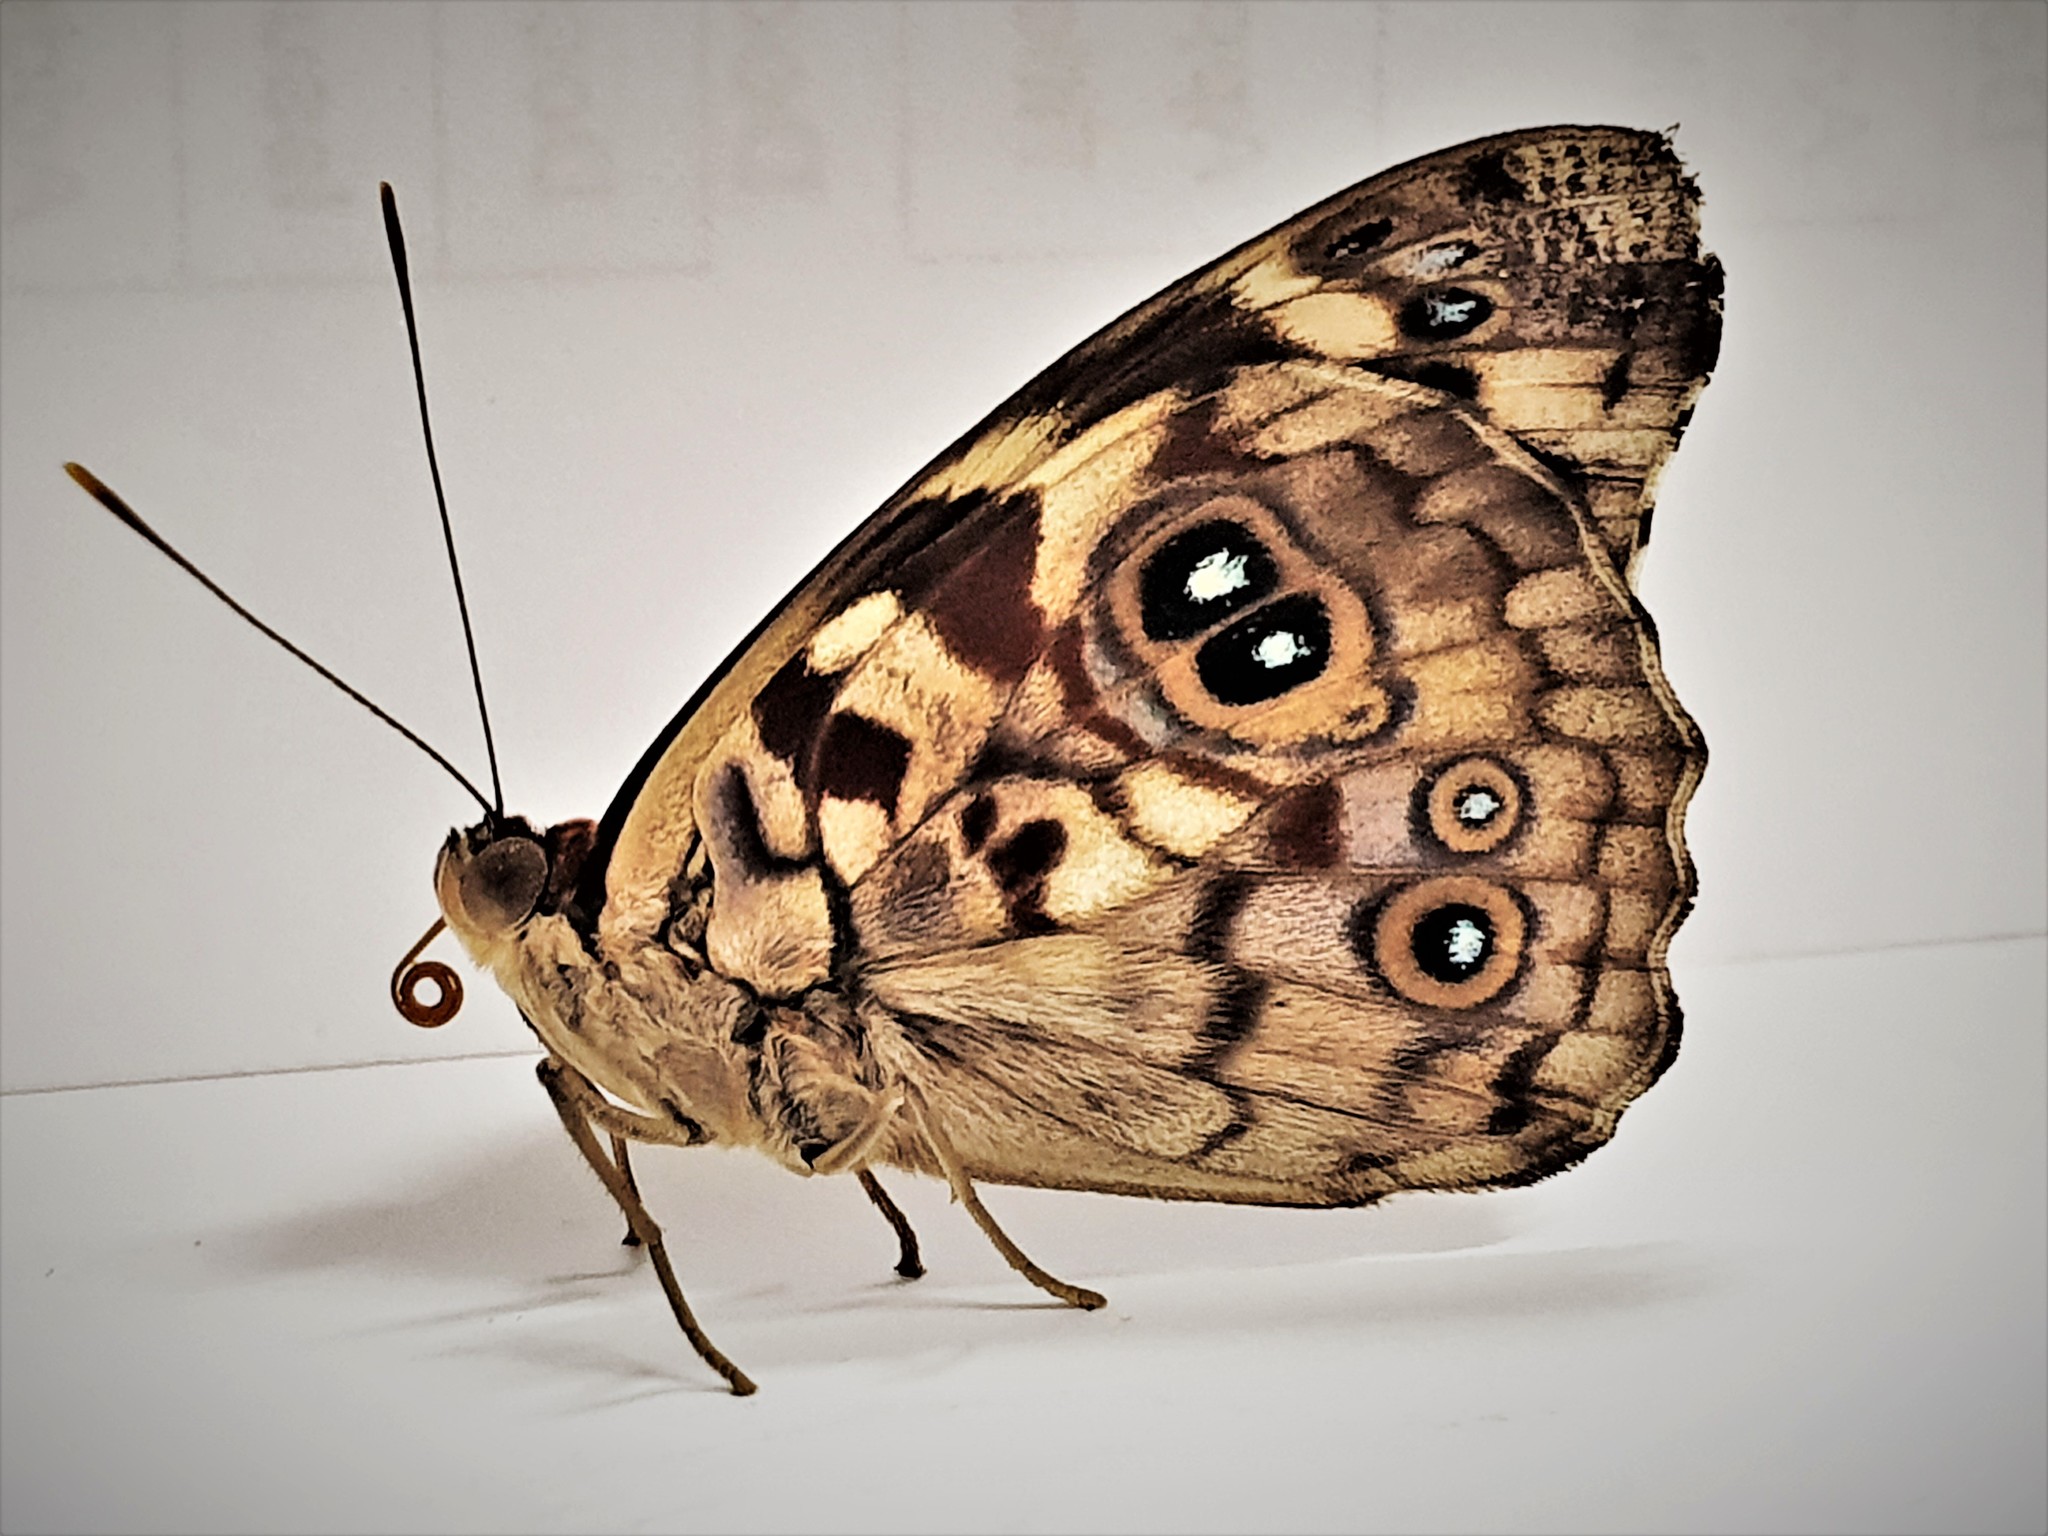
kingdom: Animalia
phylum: Arthropoda
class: Insecta
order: Lepidoptera
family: Nymphalidae
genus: Eunica
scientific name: Eunica malvina
